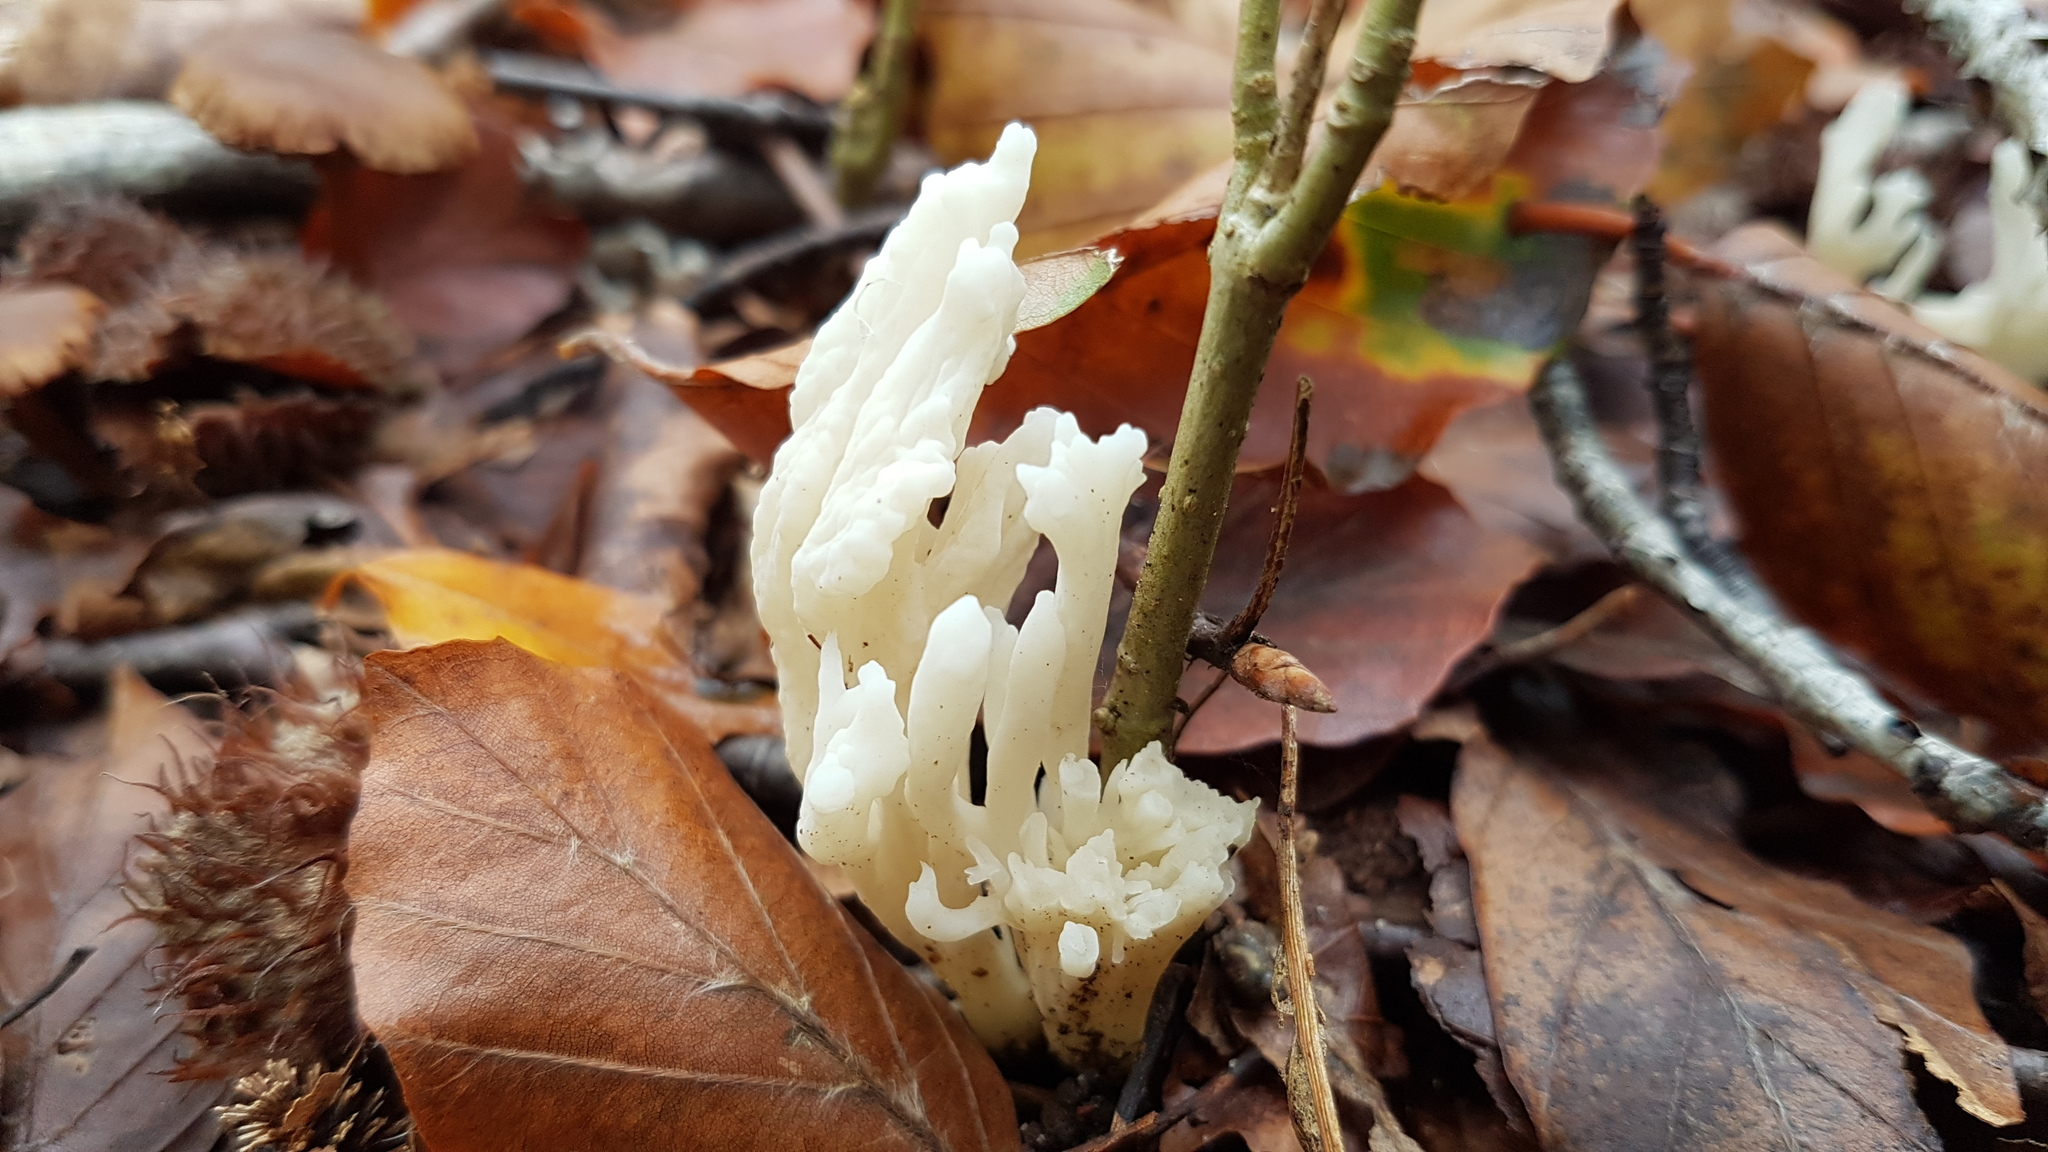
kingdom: Fungi
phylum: Basidiomycota
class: Agaricomycetes
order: Cantharellales
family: Hydnaceae
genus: Clavulina
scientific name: Clavulina rugosa
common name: Wrinkled club
